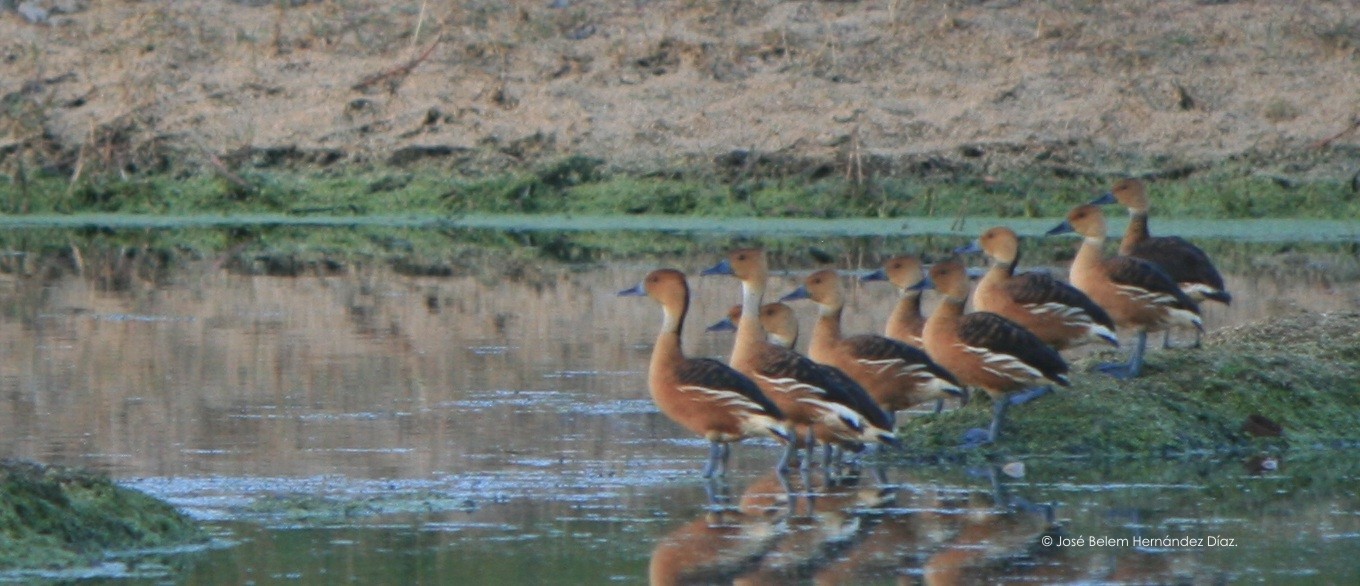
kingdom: Animalia
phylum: Chordata
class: Aves
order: Anseriformes
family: Anatidae
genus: Dendrocygna
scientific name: Dendrocygna bicolor
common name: Fulvous whistling duck
